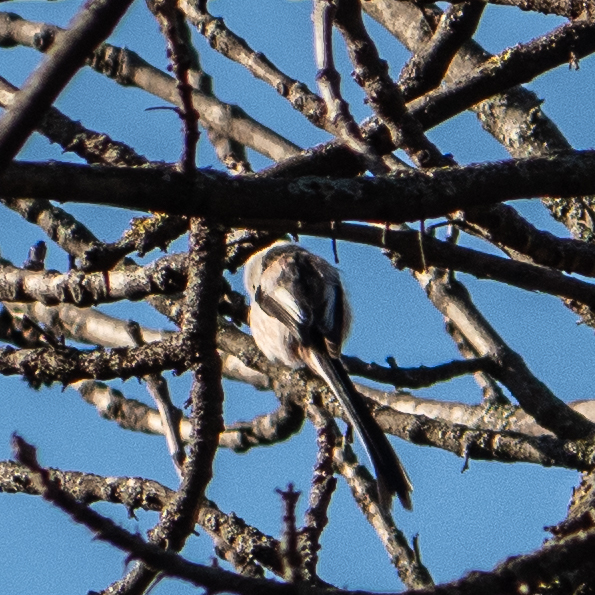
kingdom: Animalia
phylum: Chordata
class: Aves
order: Passeriformes
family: Aegithalidae
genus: Aegithalos
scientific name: Aegithalos caudatus
